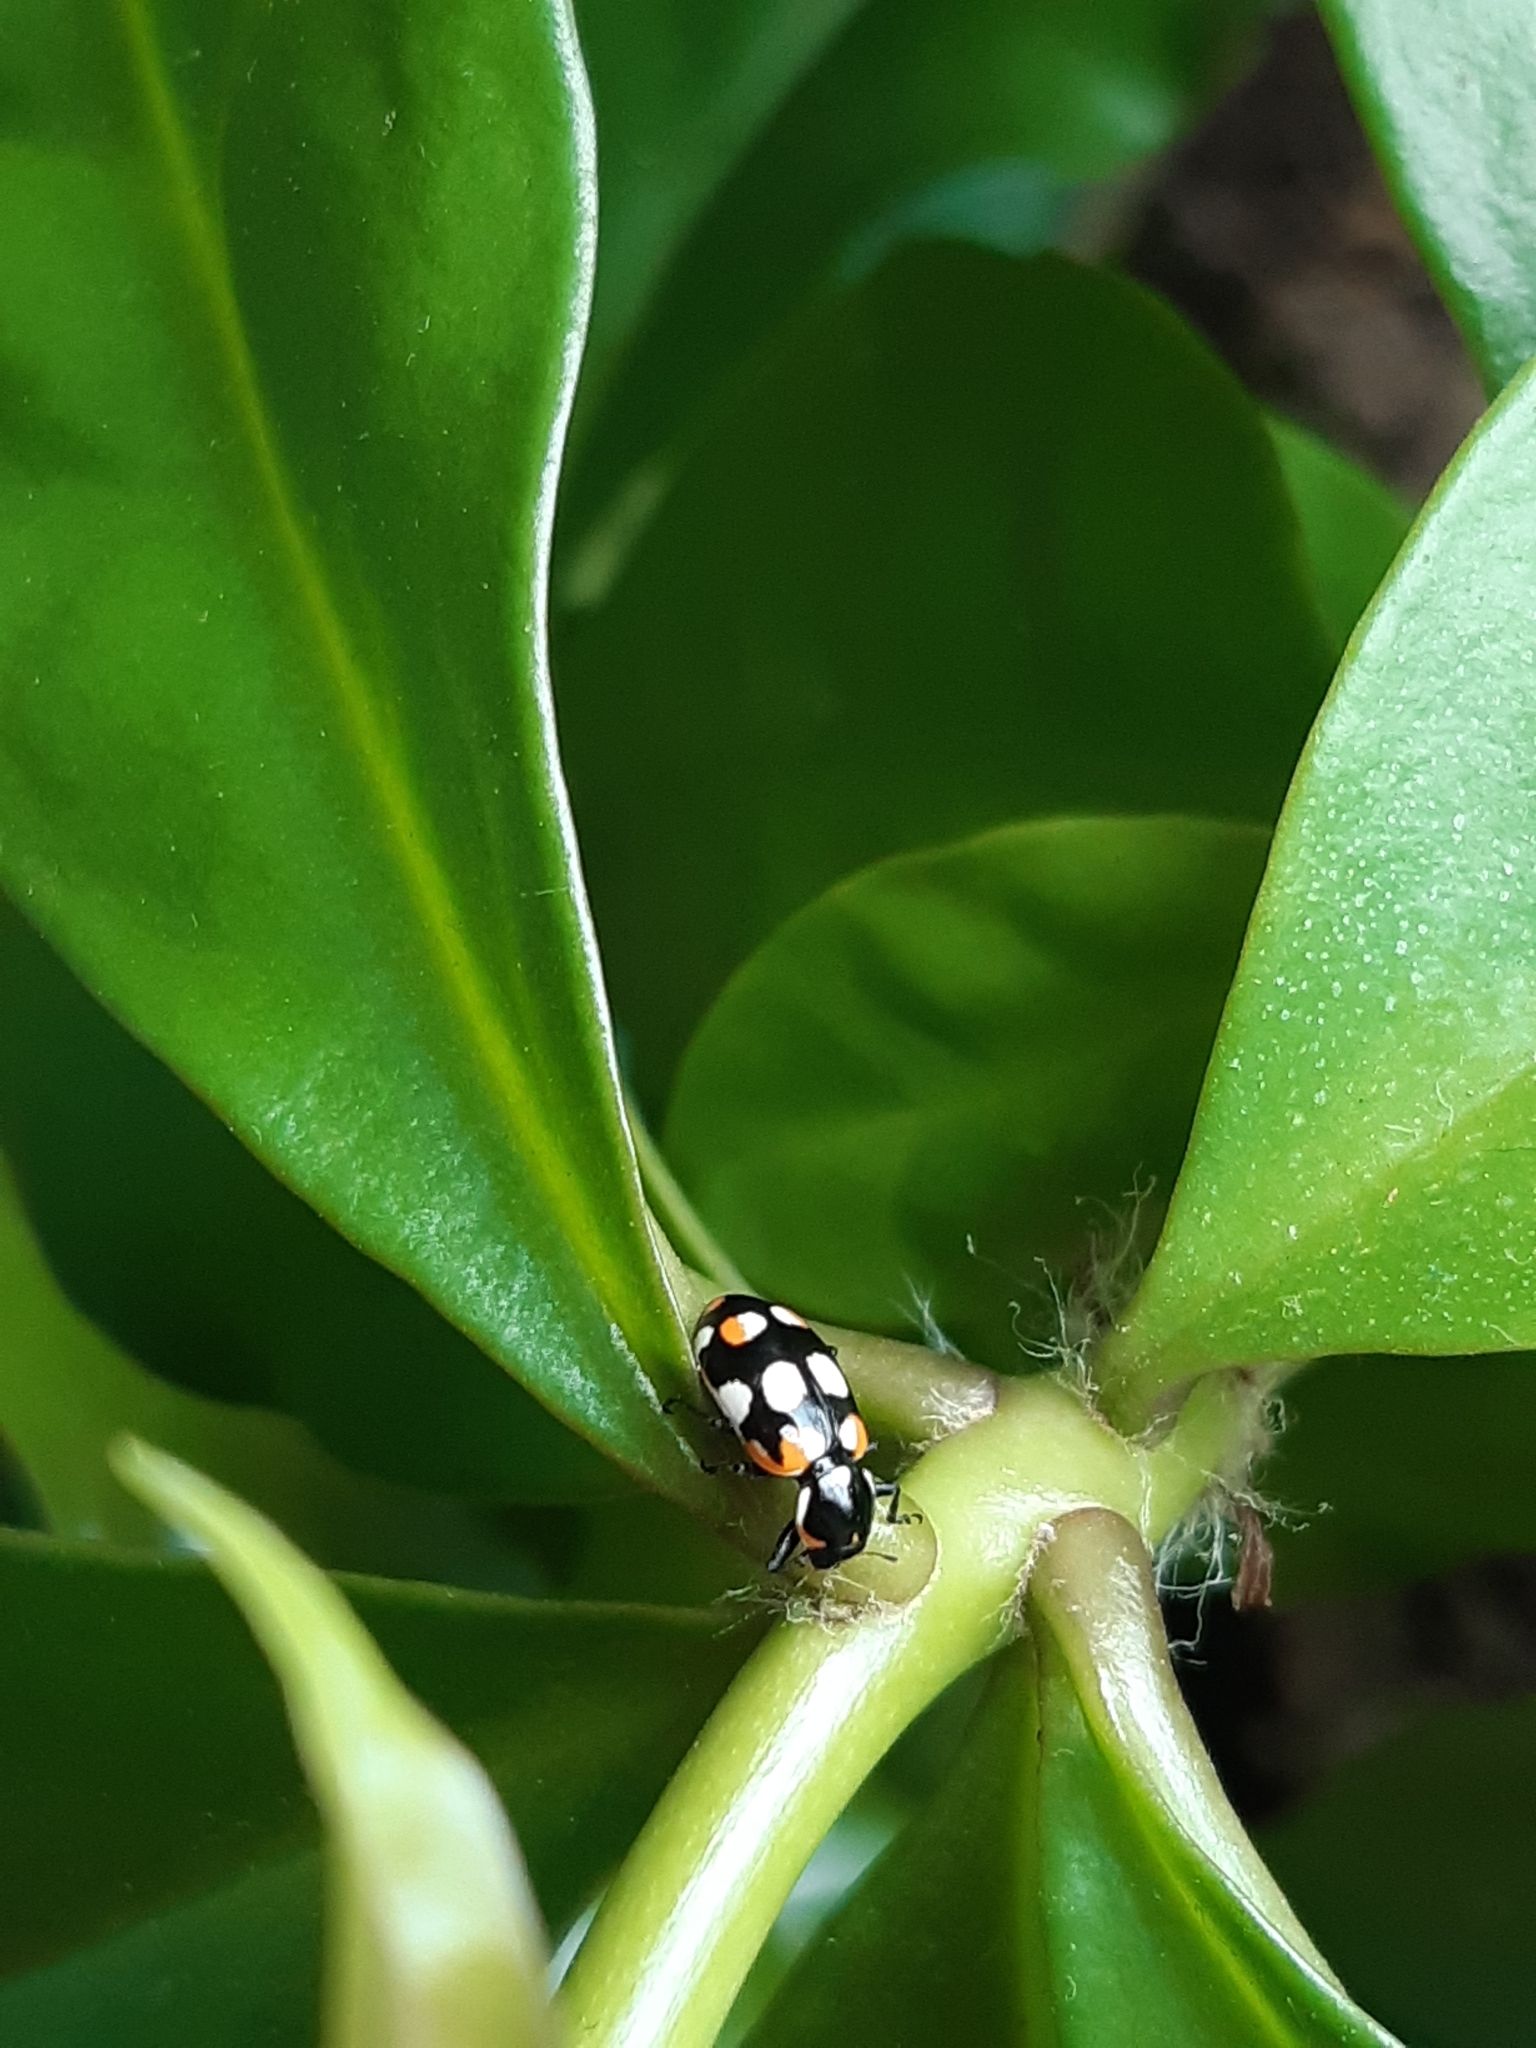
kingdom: Animalia
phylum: Arthropoda
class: Insecta
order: Coleoptera
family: Coccinellidae
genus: Eriopis
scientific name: Eriopis connexa
